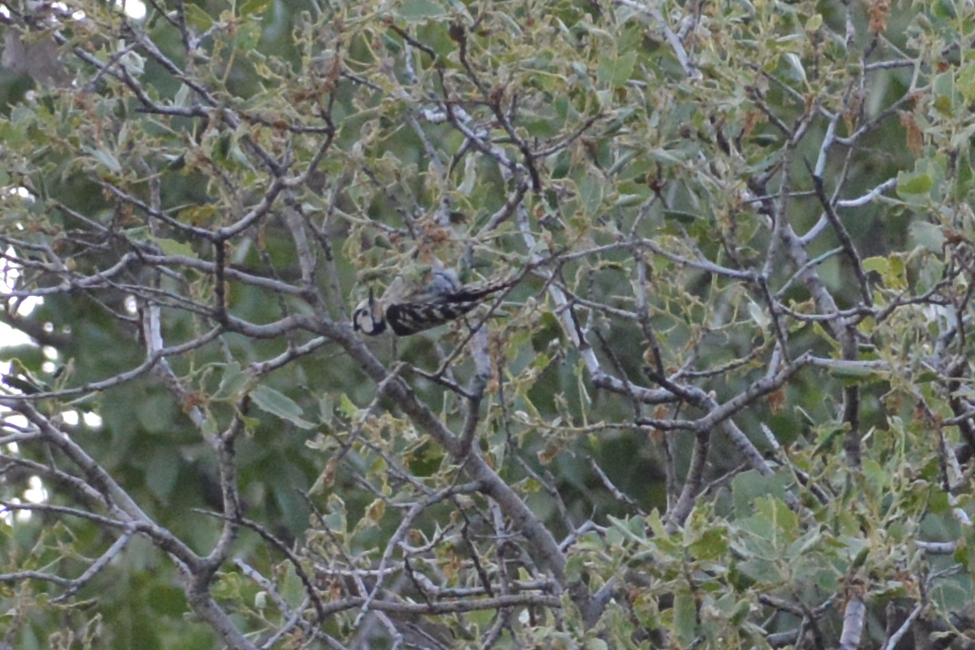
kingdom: Animalia
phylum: Chordata
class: Aves
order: Piciformes
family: Picidae
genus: Dryobates
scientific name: Dryobates minor
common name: Lesser spotted woodpecker
